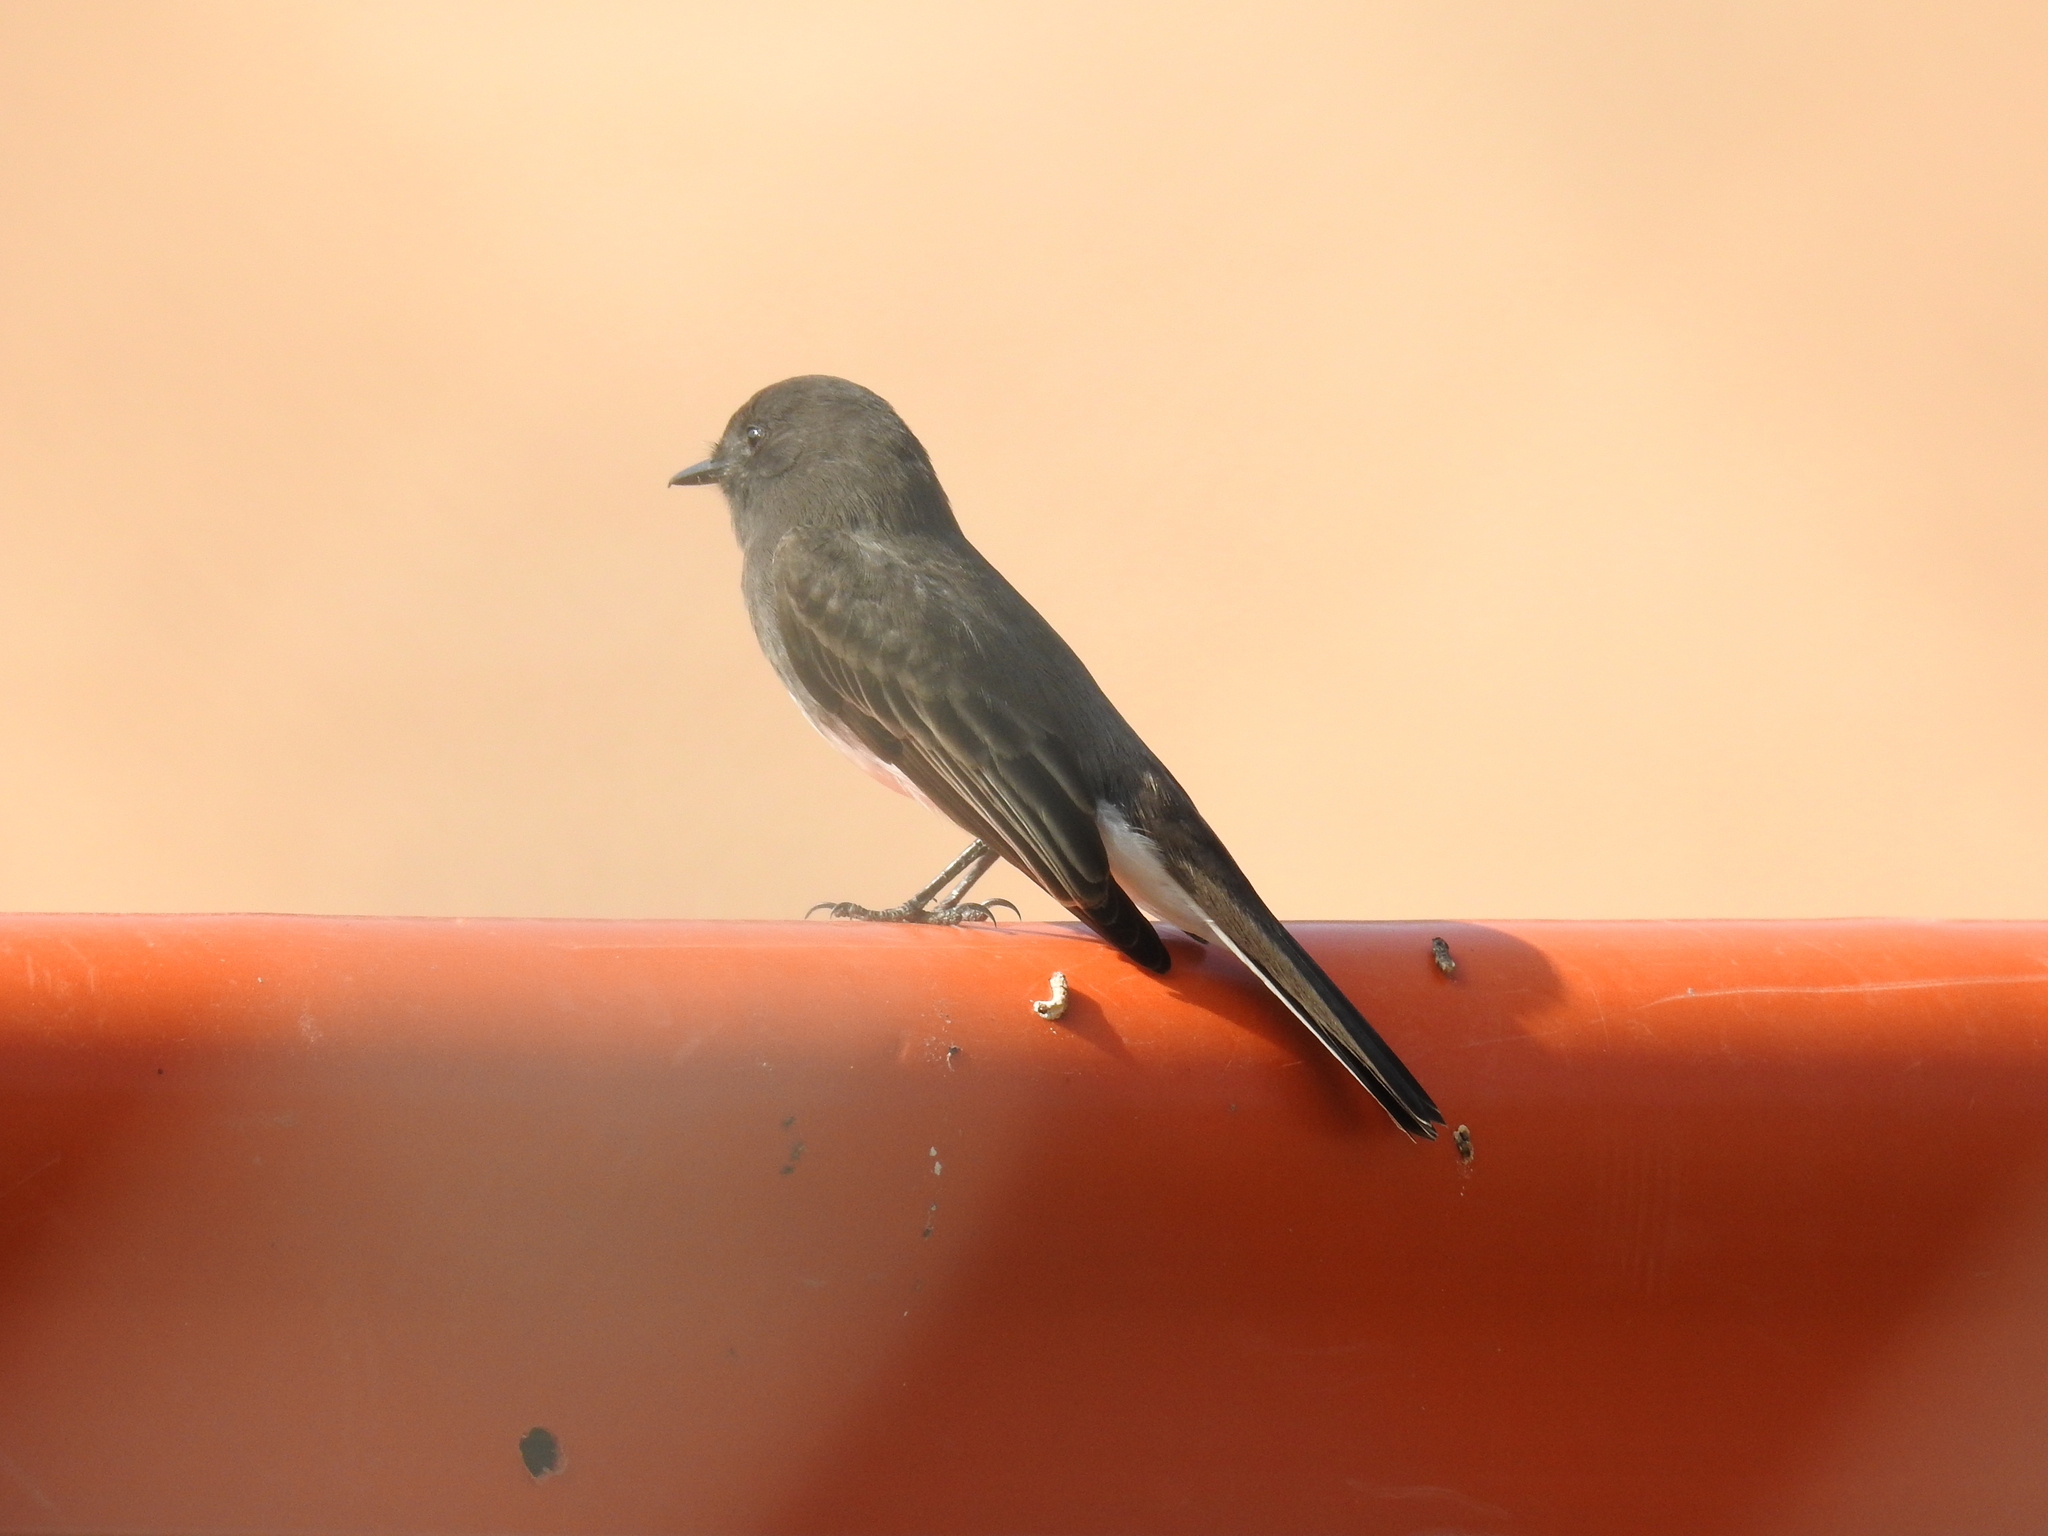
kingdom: Animalia
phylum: Chordata
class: Aves
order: Passeriformes
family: Tyrannidae
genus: Sayornis
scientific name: Sayornis nigricans
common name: Black phoebe
